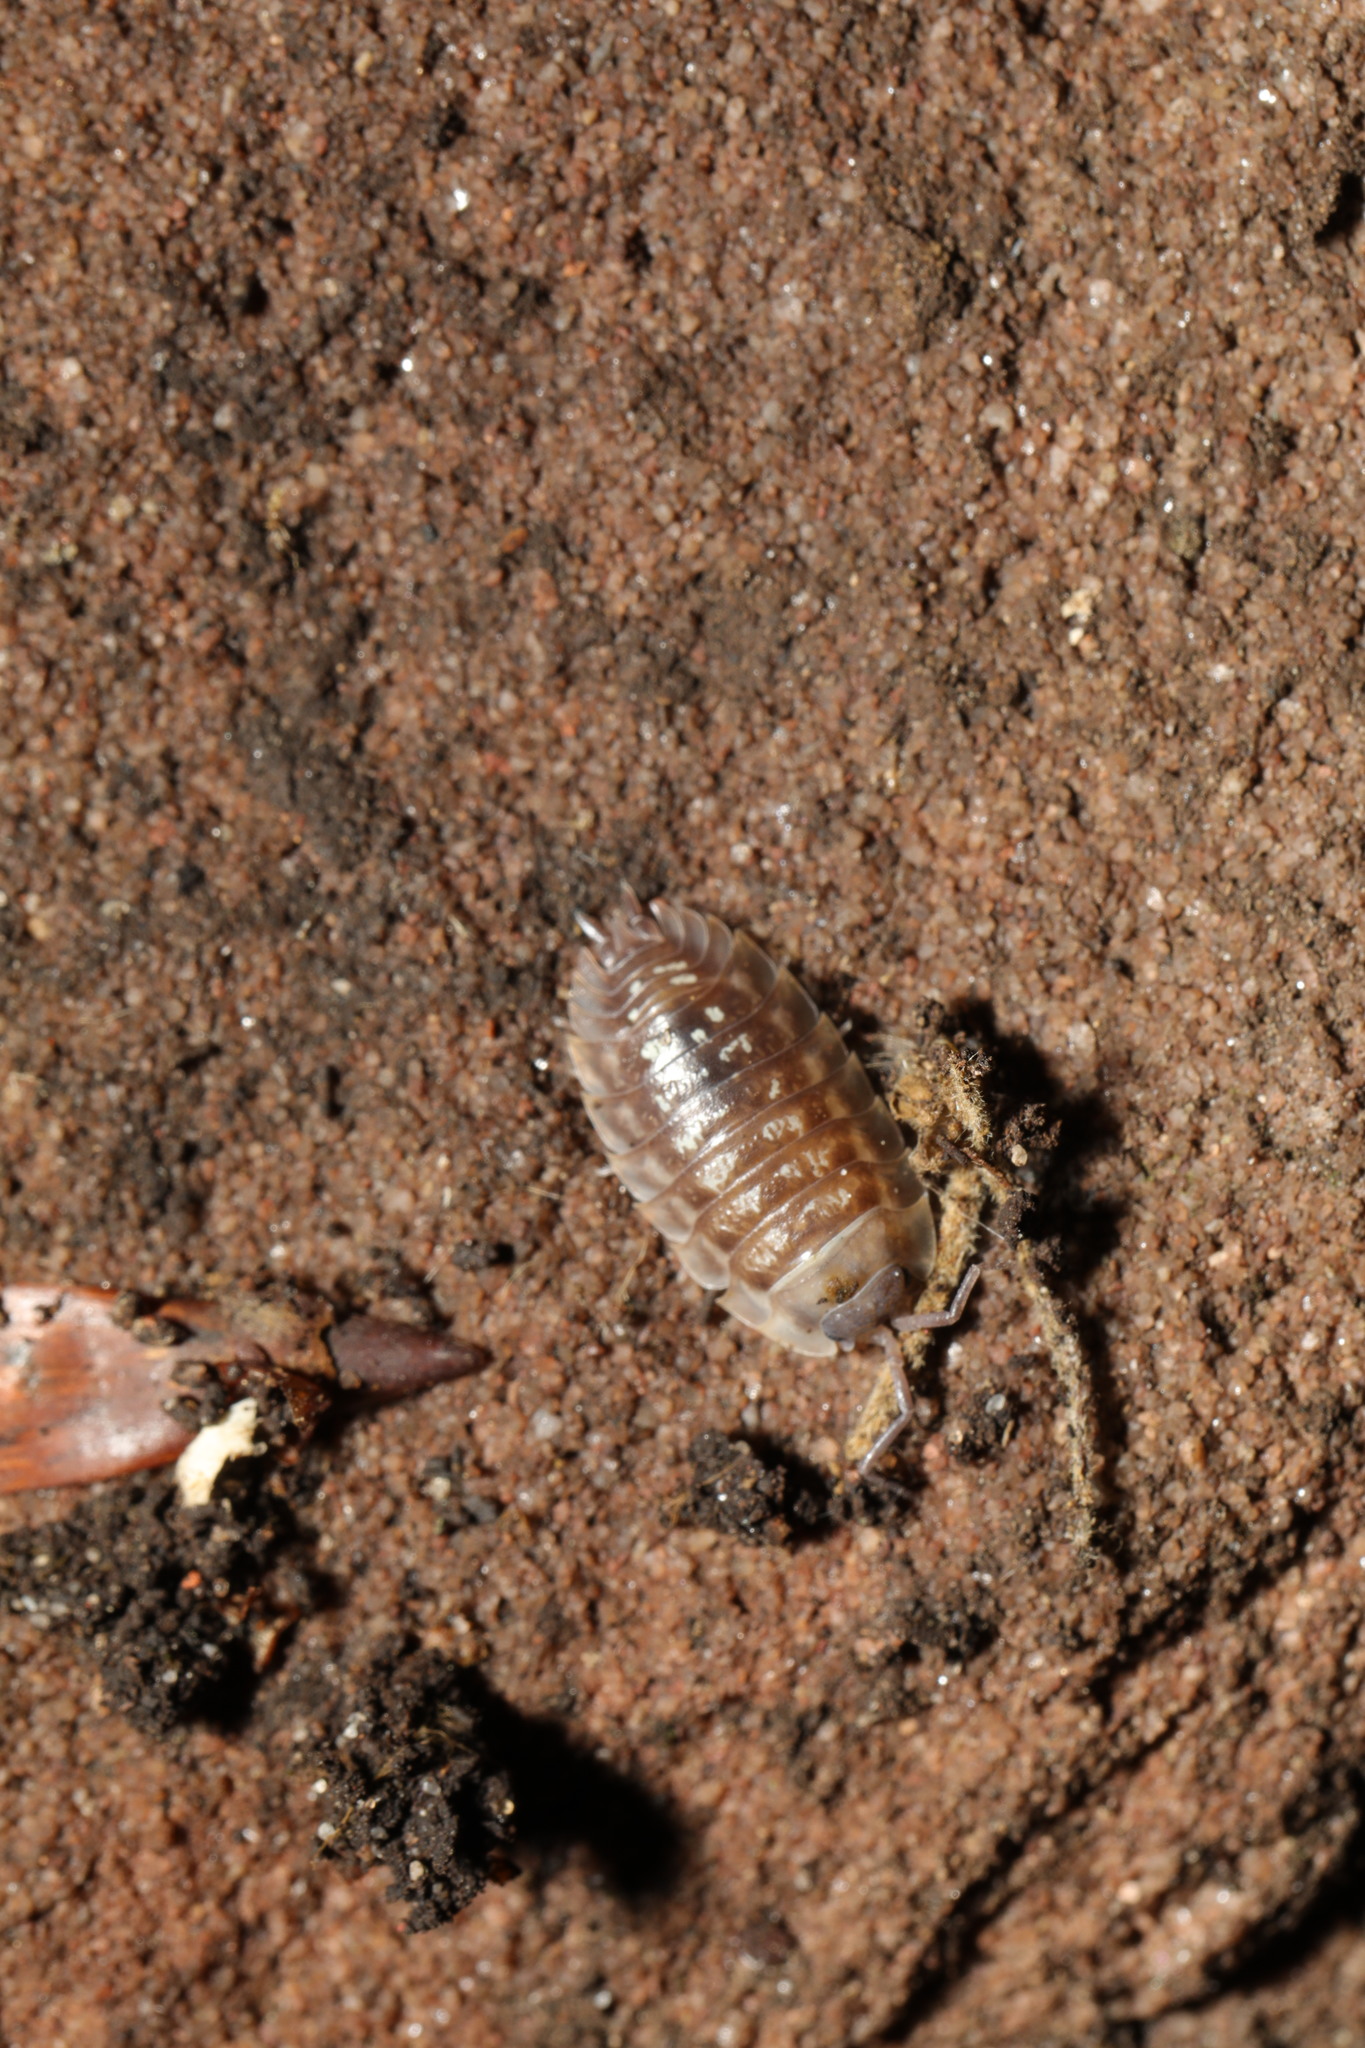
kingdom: Animalia
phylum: Arthropoda
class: Malacostraca
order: Isopoda
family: Oniscidae
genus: Oniscus
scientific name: Oniscus asellus
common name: Common shiny woodlouse
